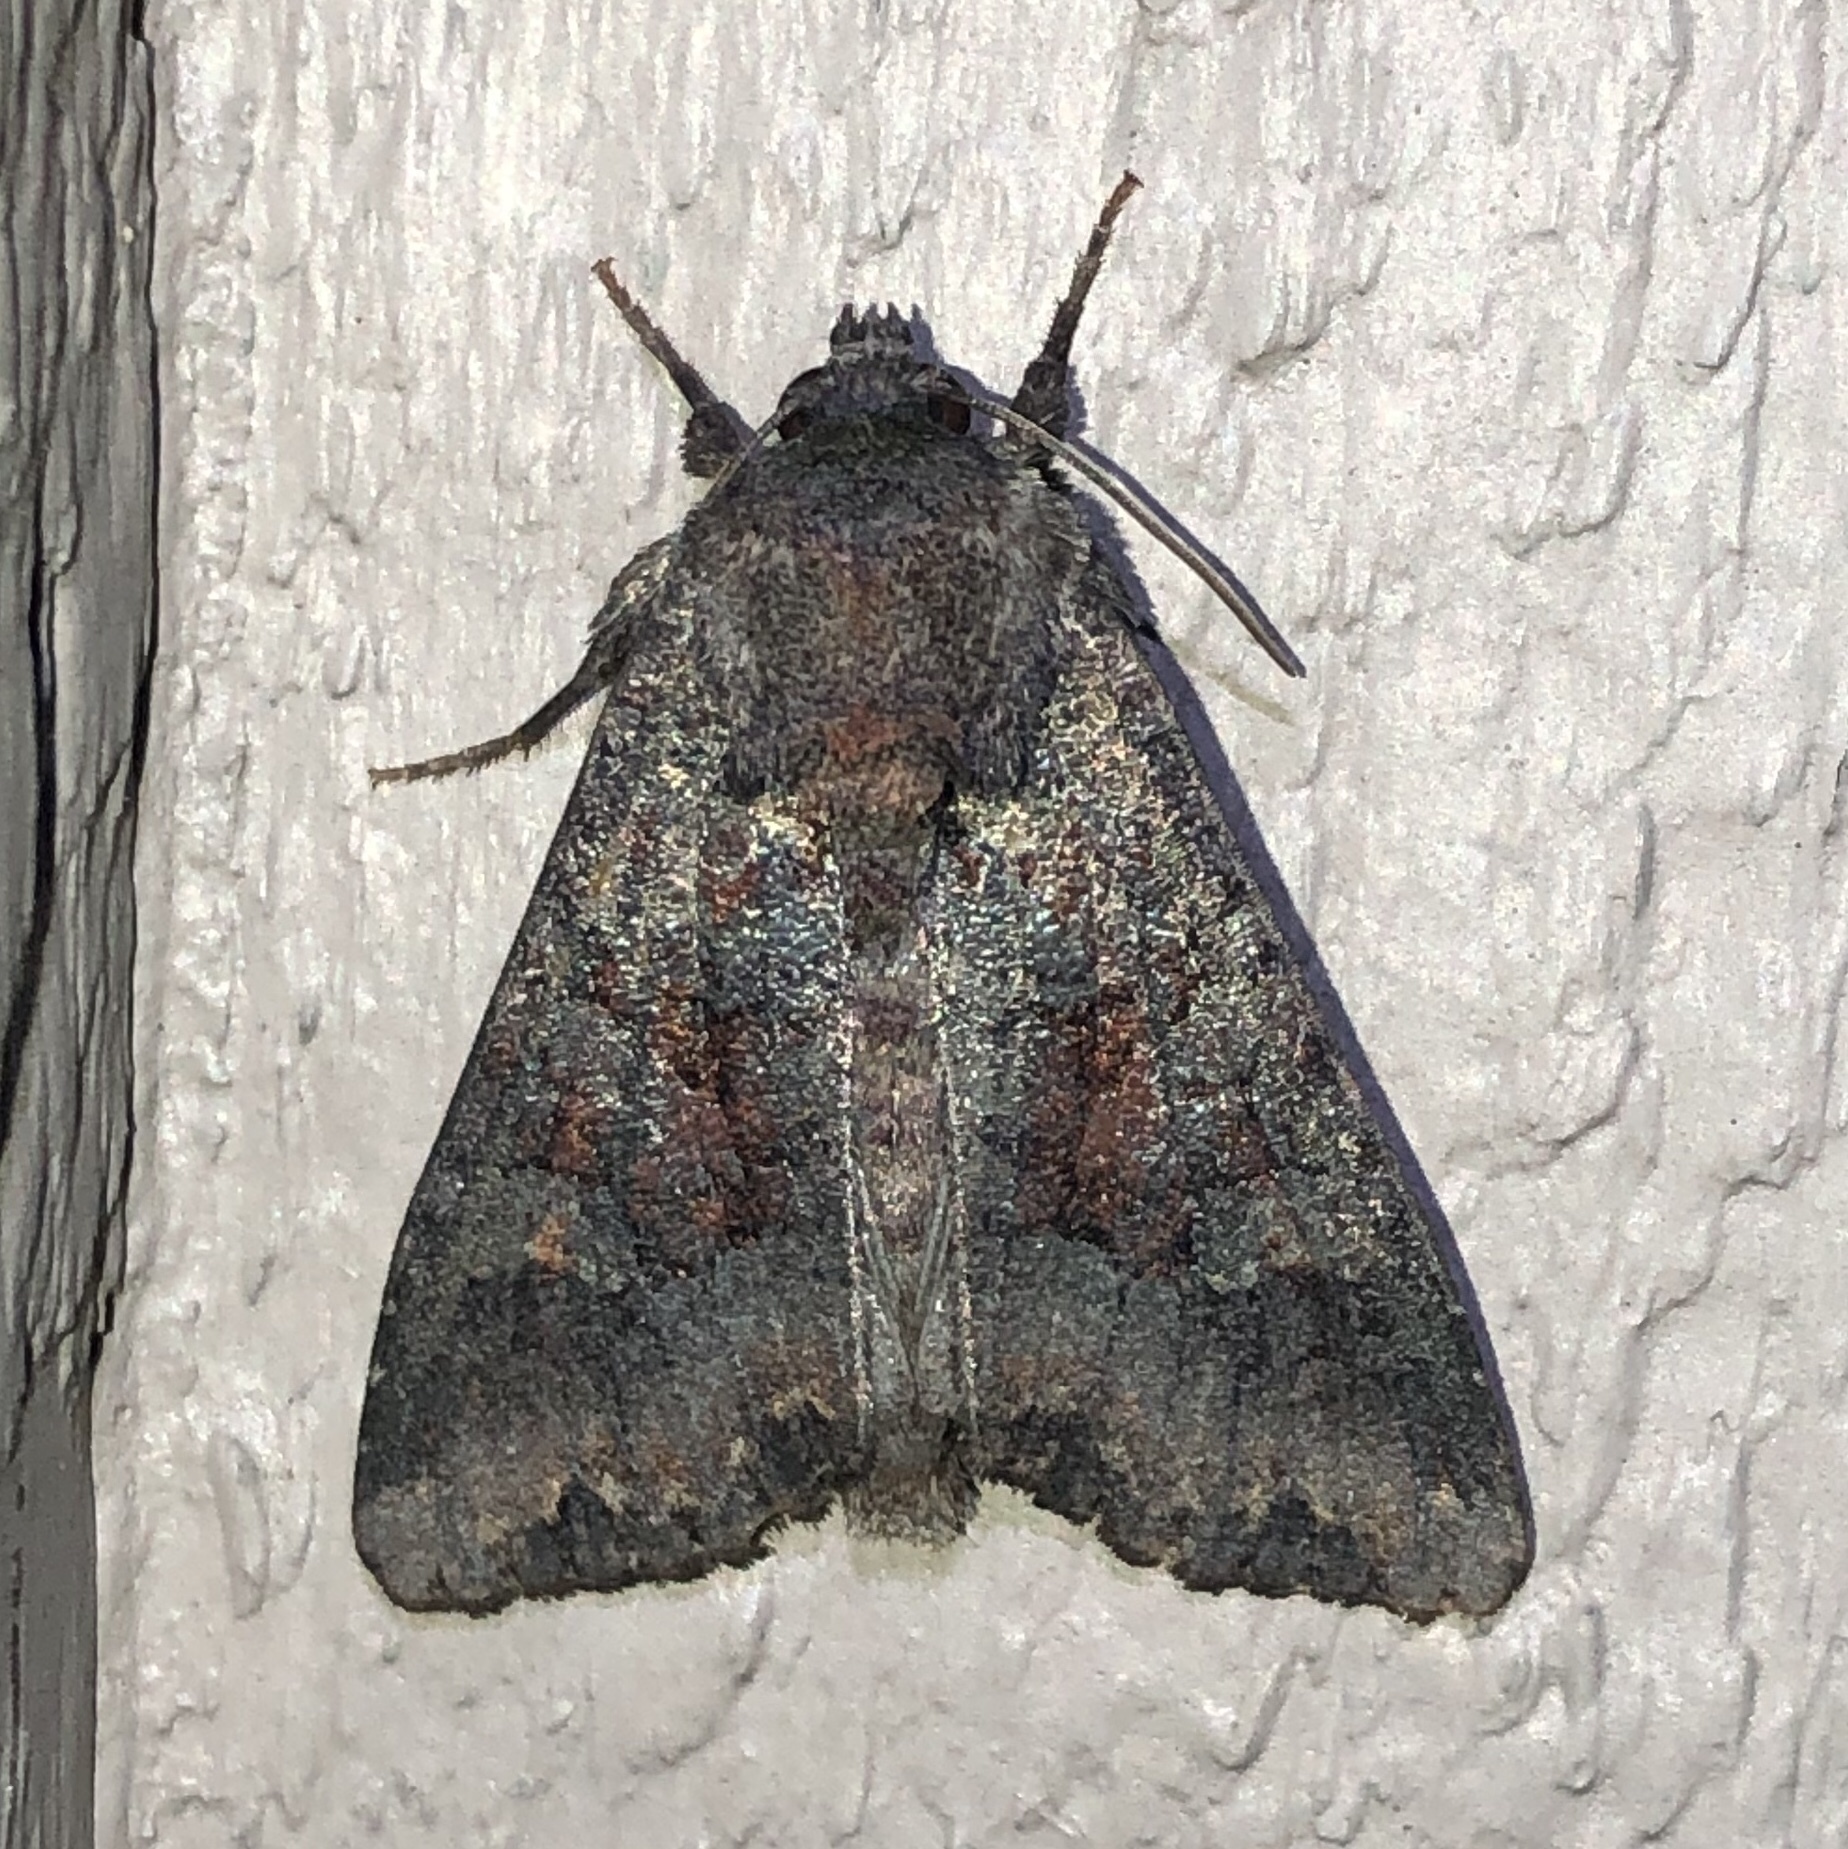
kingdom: Animalia
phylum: Arthropoda
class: Insecta
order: Lepidoptera
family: Noctuidae
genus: Apamea
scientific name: Apamea amputatrix
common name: Yellow-headed cutworm moth
